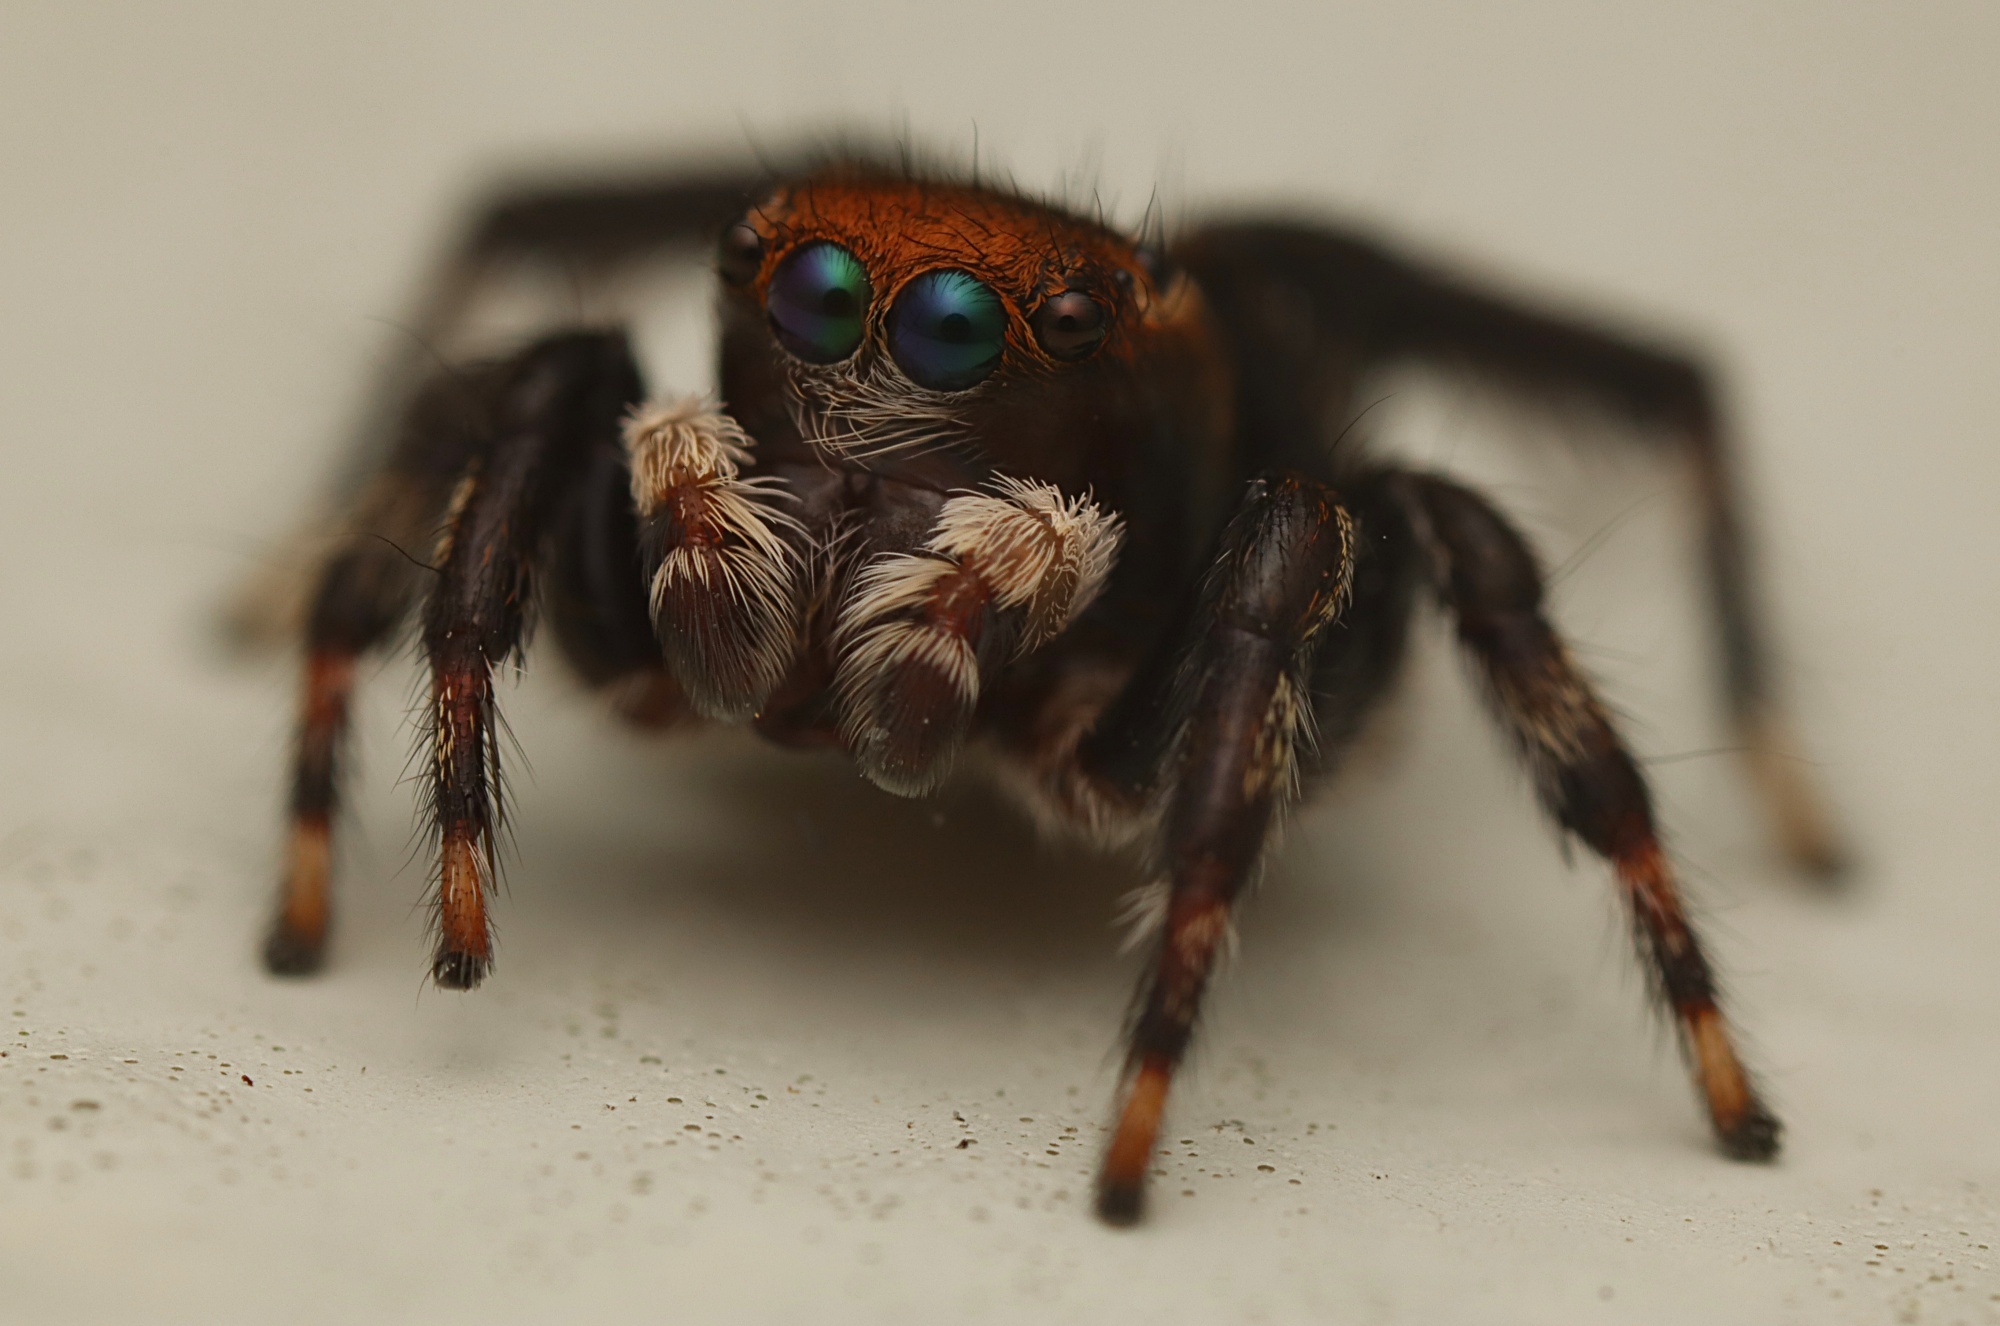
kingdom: Animalia
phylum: Arthropoda
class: Arachnida
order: Araneae
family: Salticidae
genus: Maratus
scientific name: Maratus griseus
